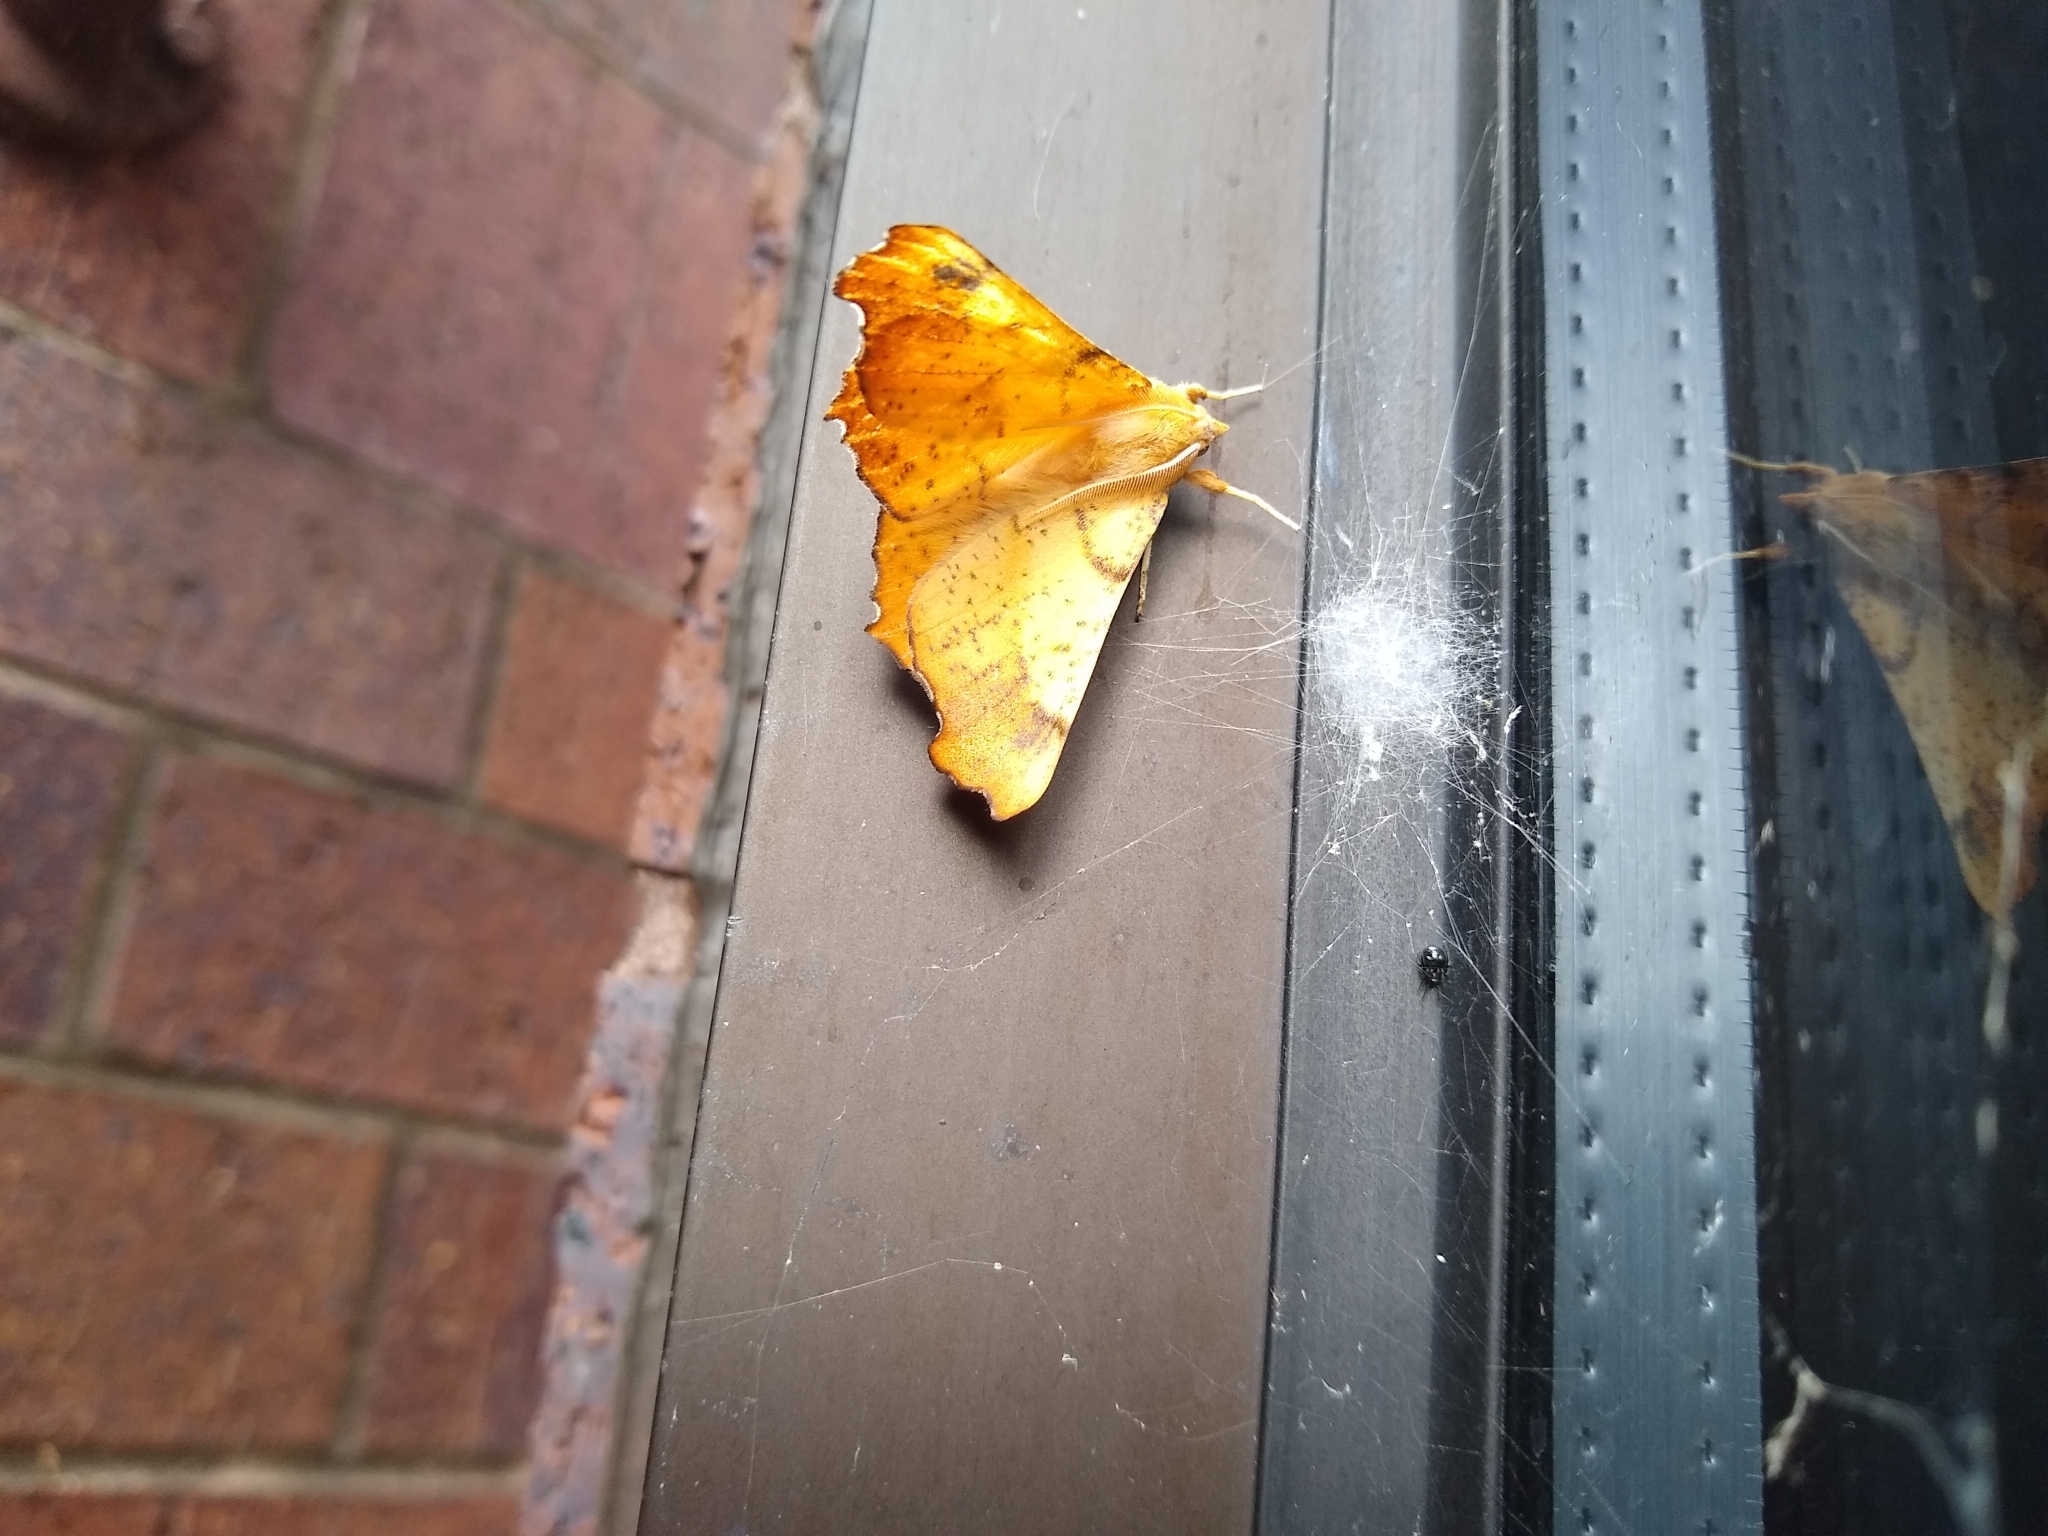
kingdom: Animalia
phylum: Arthropoda
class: Insecta
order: Lepidoptera
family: Geometridae
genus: Ennomos
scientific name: Ennomos magnaria
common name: Maple spanworm
